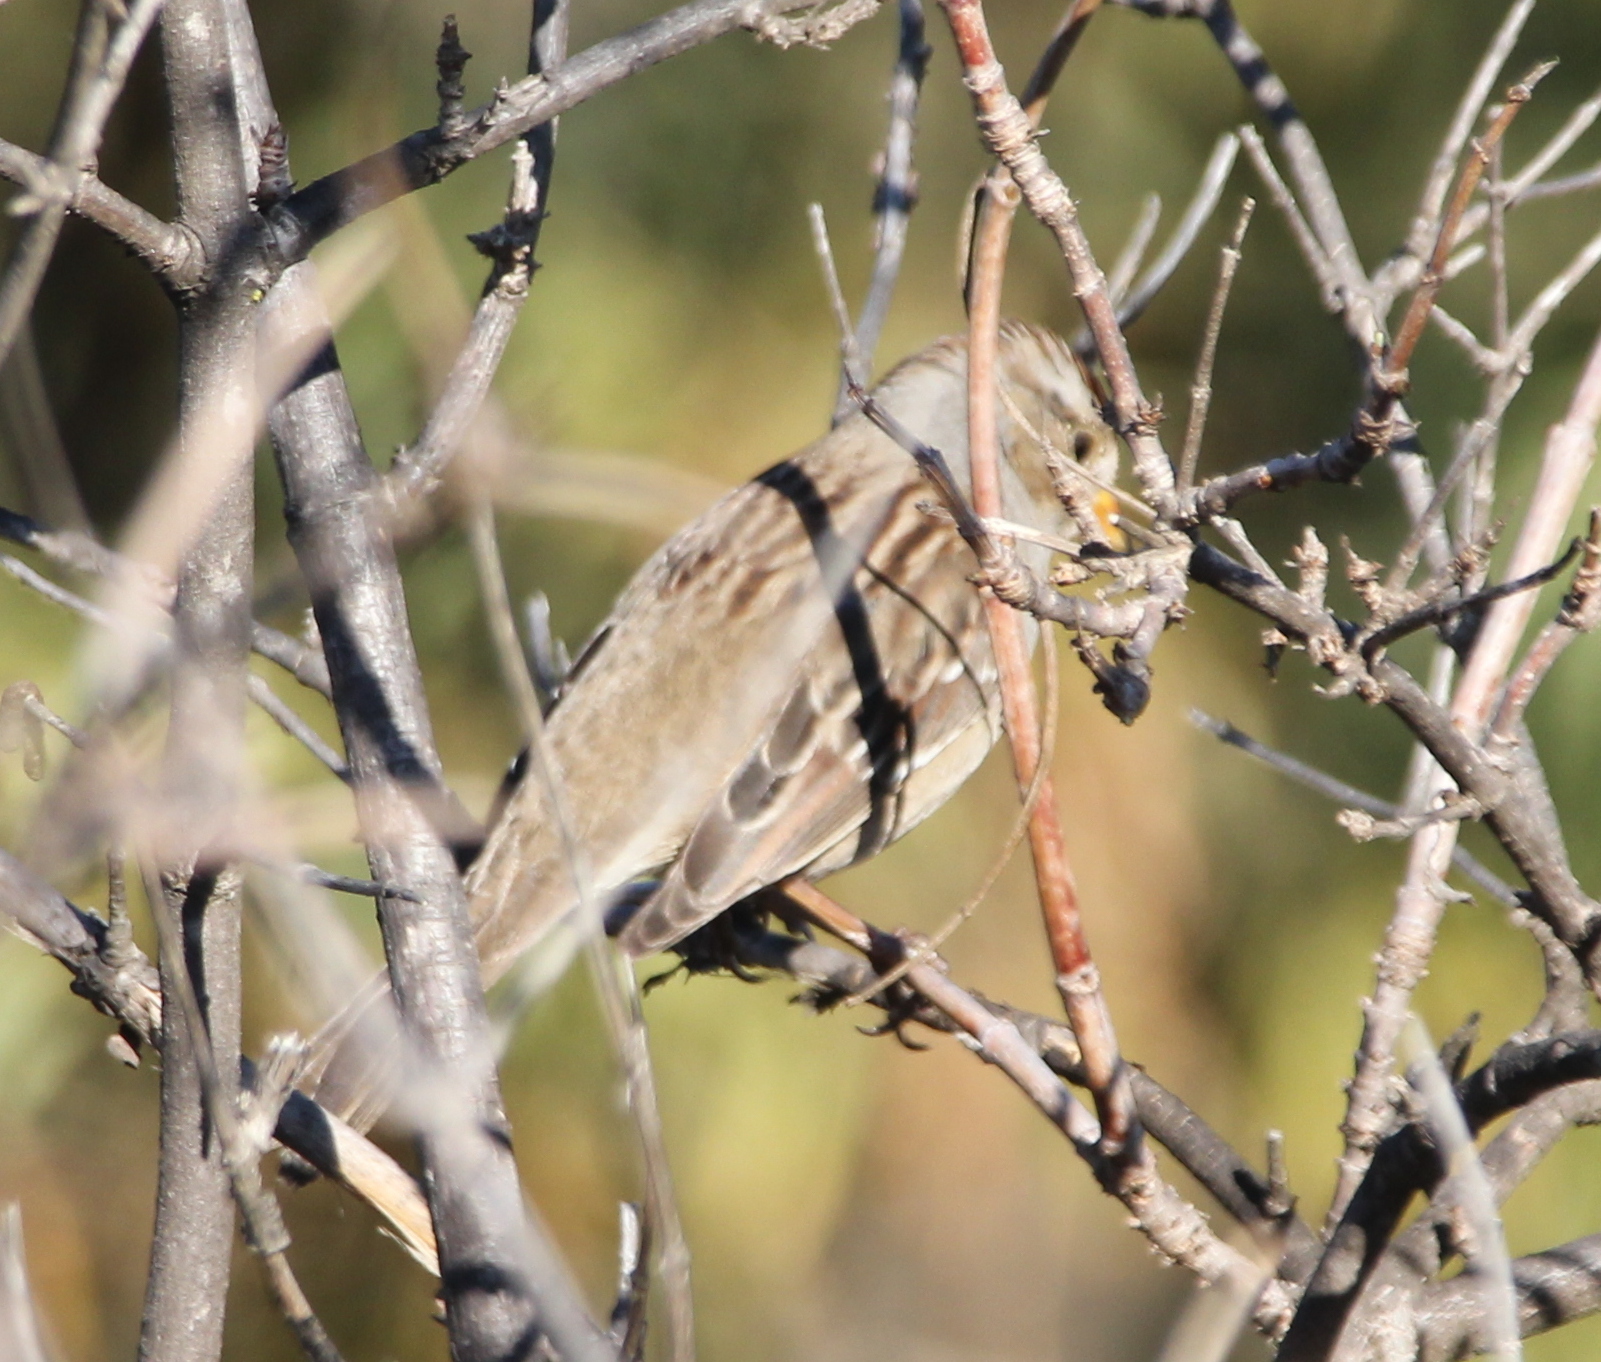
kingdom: Animalia
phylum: Chordata
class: Aves
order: Passeriformes
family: Passerellidae
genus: Zonotrichia
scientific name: Zonotrichia leucophrys
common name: White-crowned sparrow
